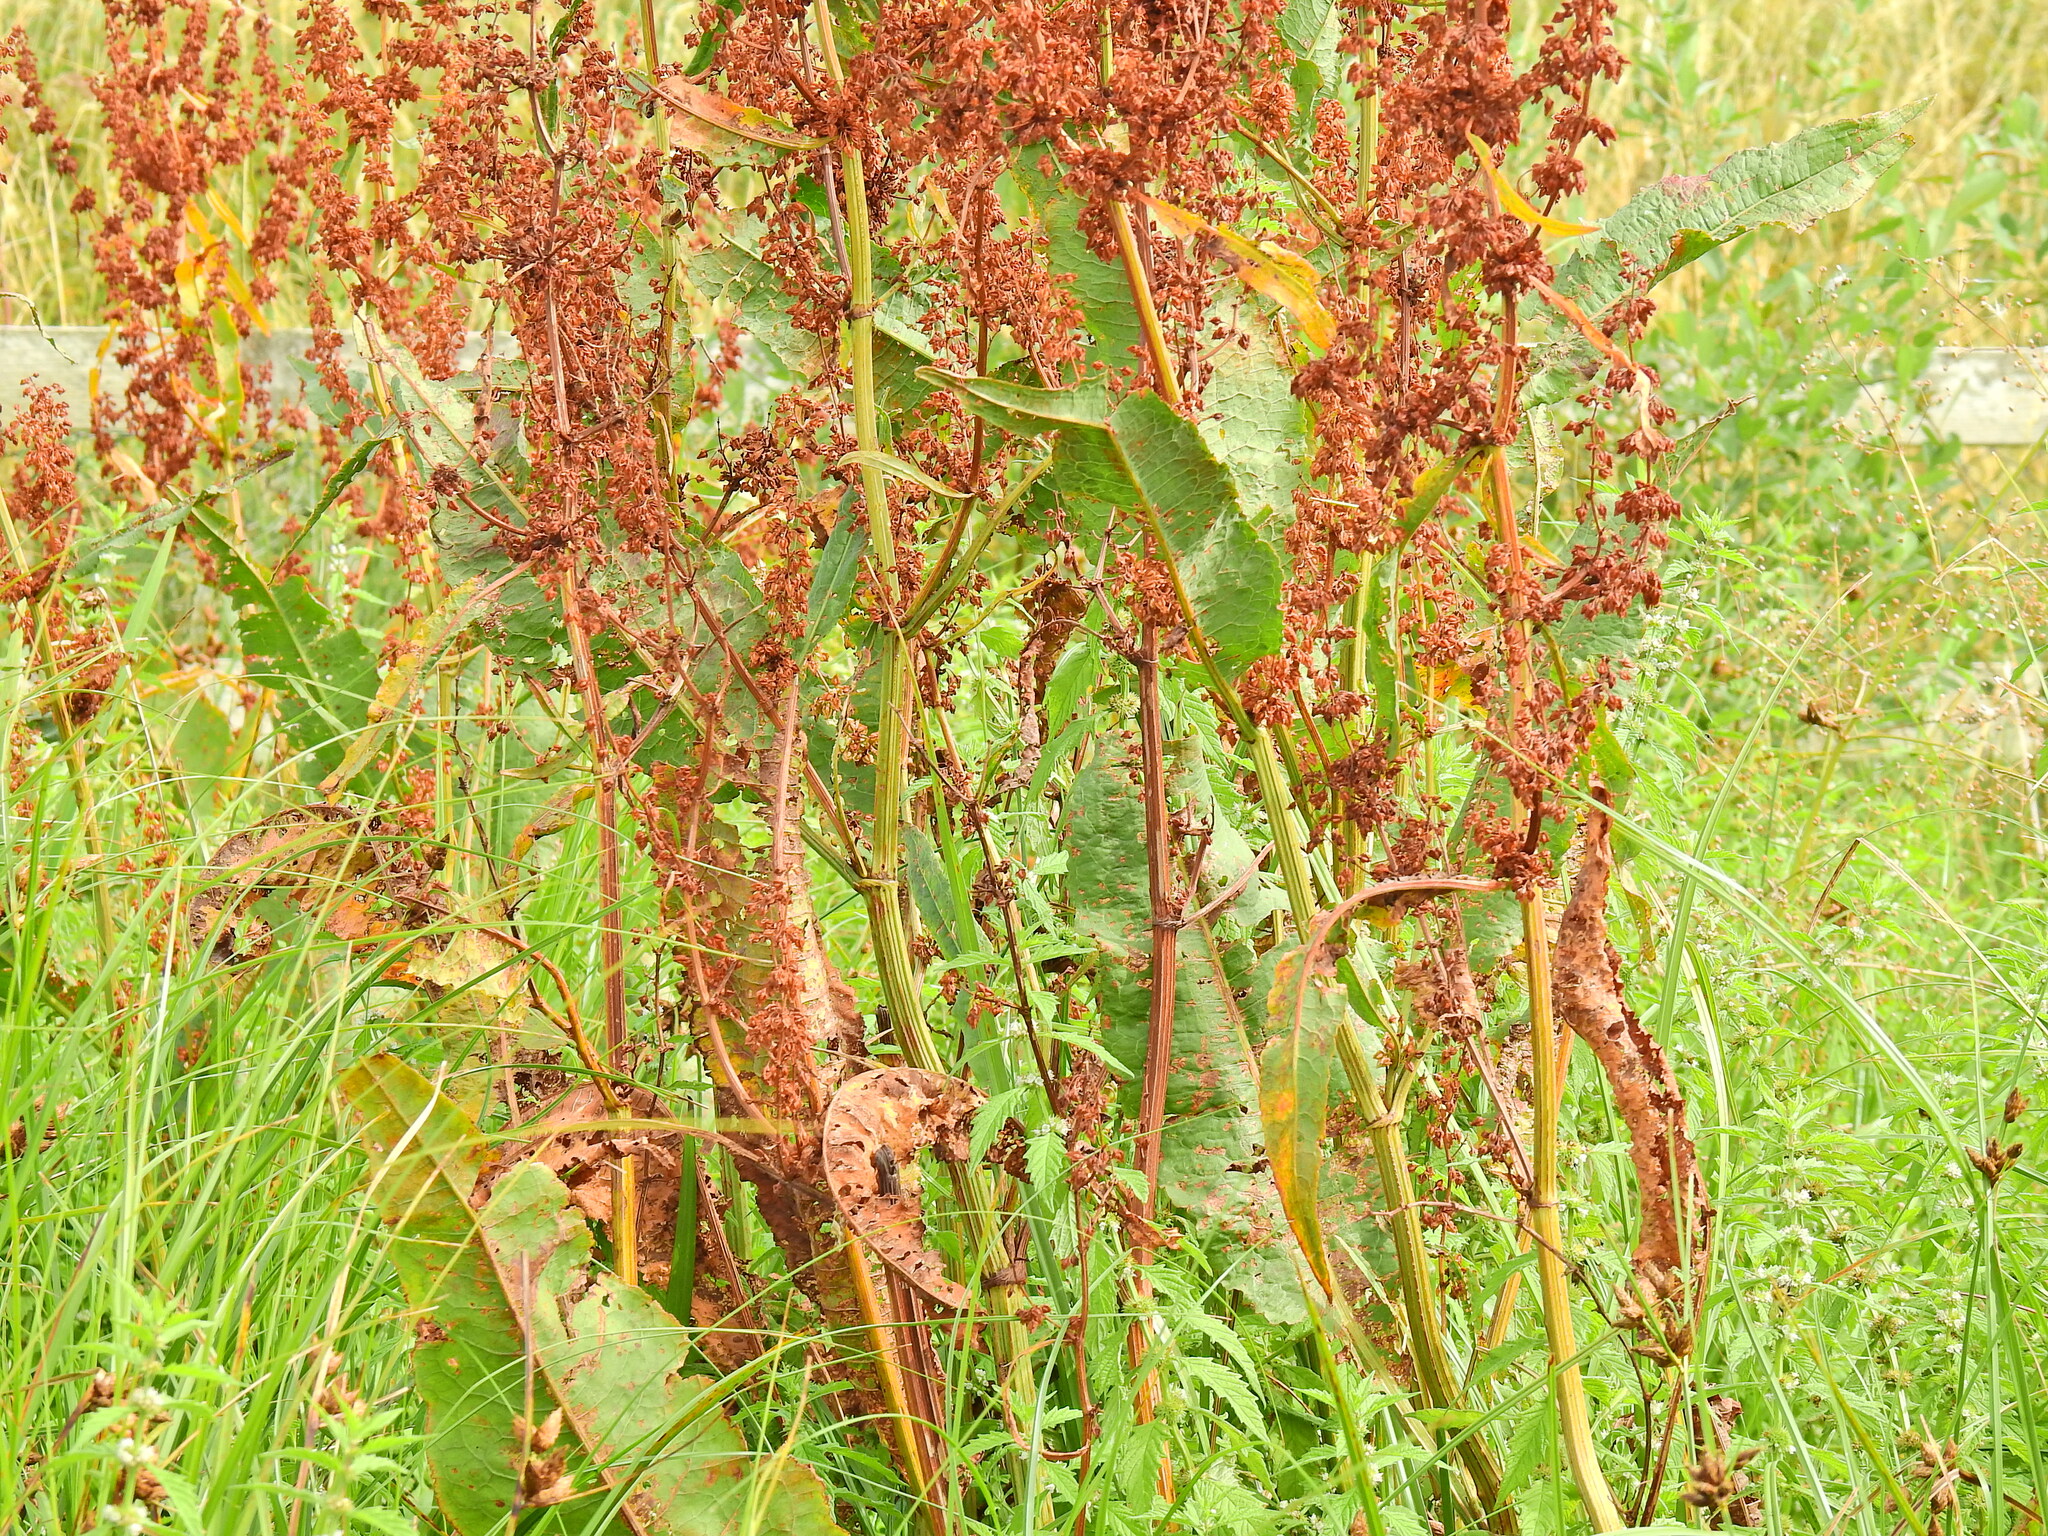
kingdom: Plantae
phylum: Tracheophyta
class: Magnoliopsida
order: Caryophyllales
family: Polygonaceae
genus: Rumex
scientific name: Rumex hydrolapathum
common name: Water dock
